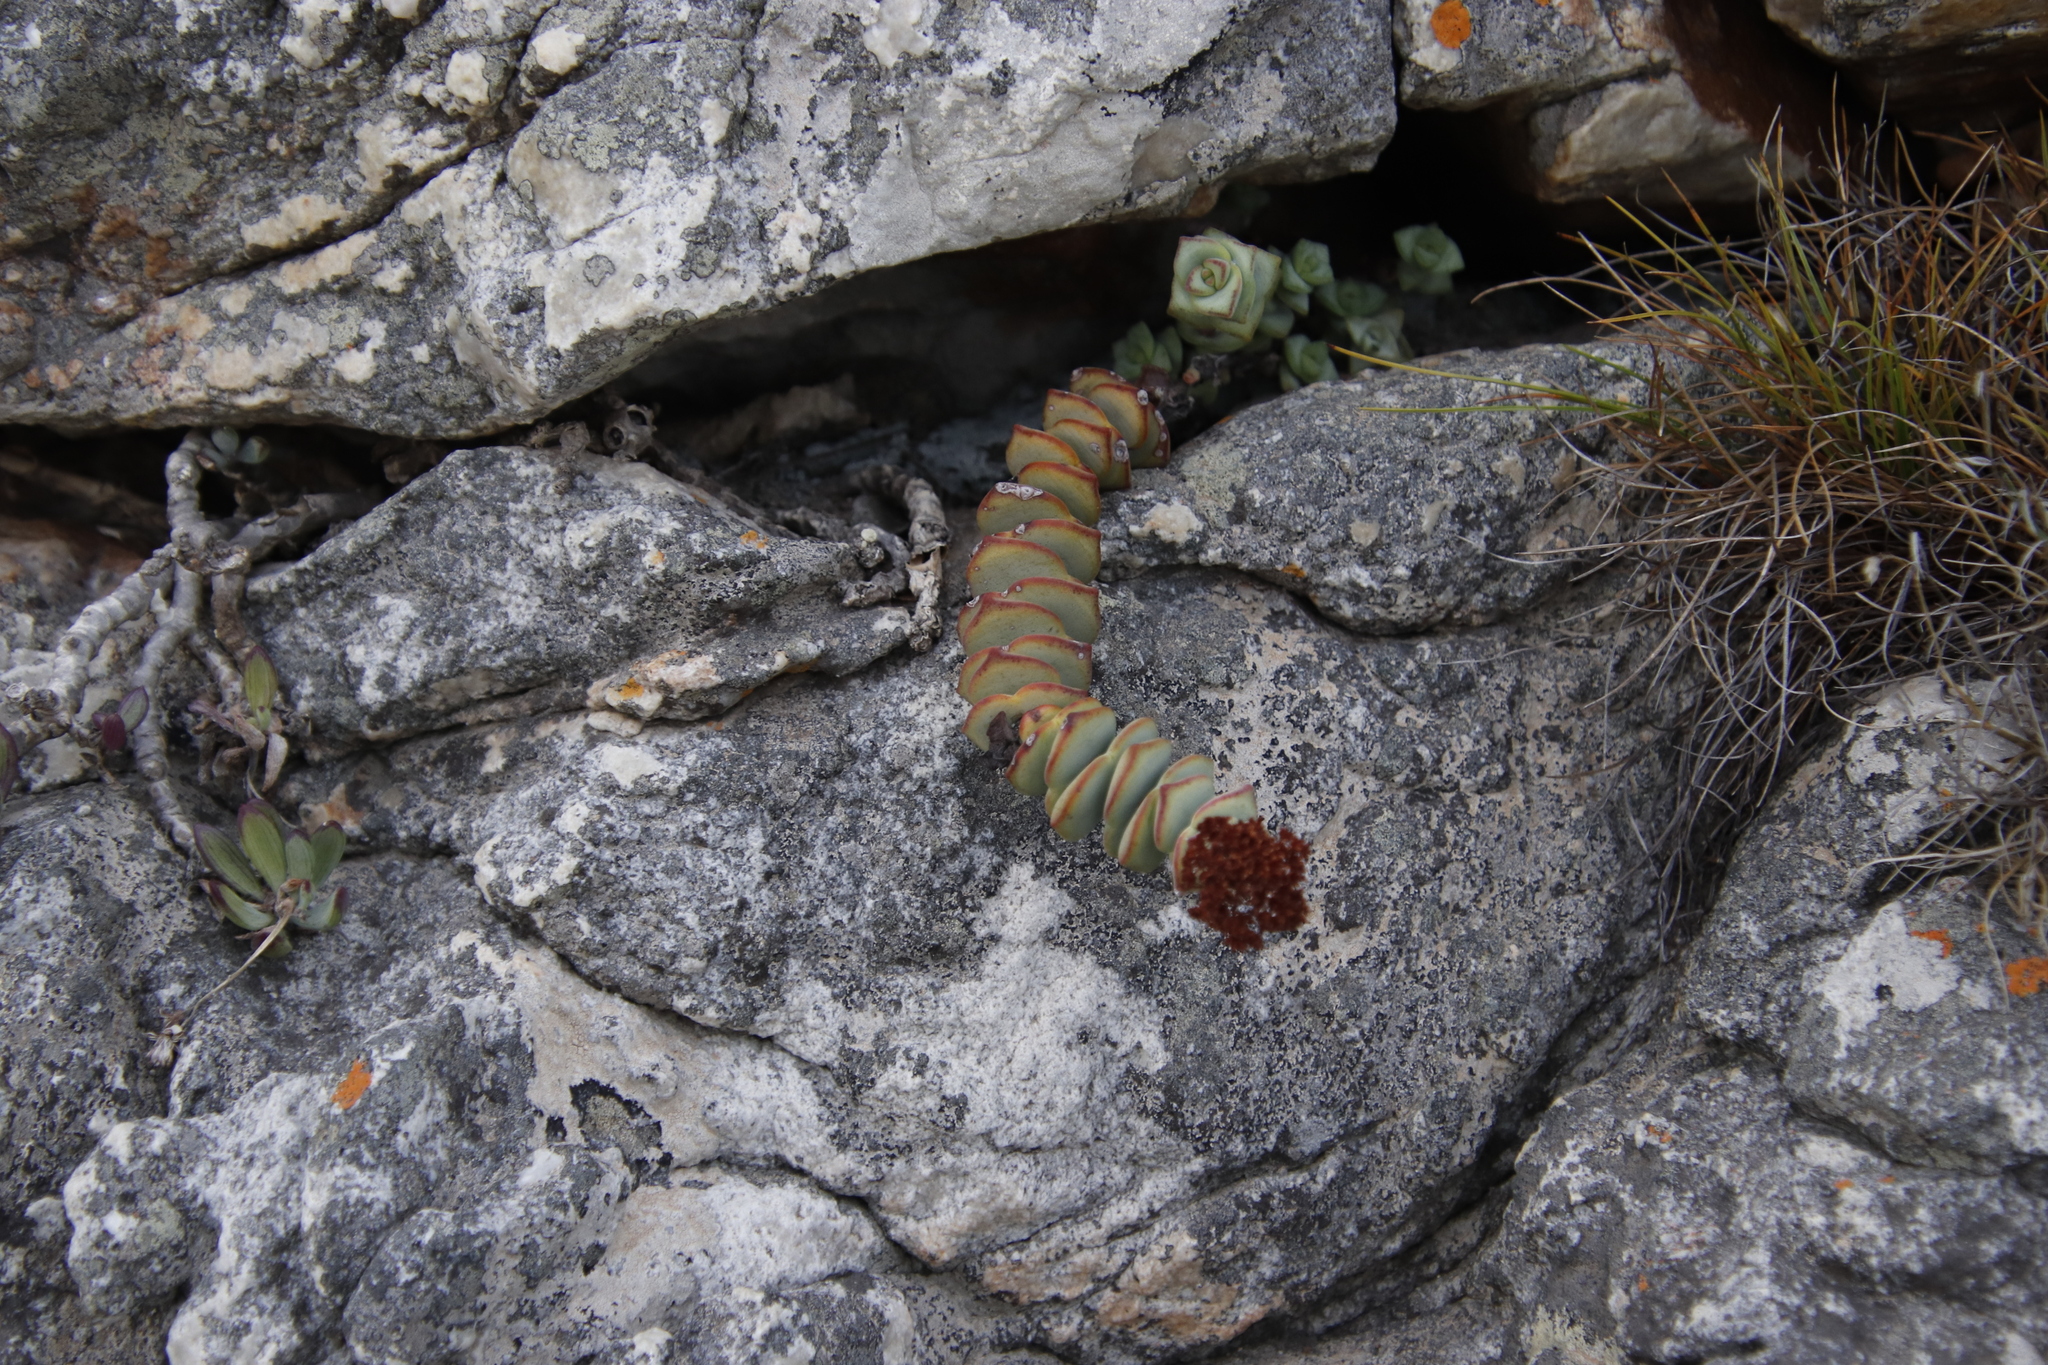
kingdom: Plantae
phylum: Tracheophyta
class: Magnoliopsida
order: Saxifragales
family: Crassulaceae
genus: Crassula
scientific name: Crassula rupestris
